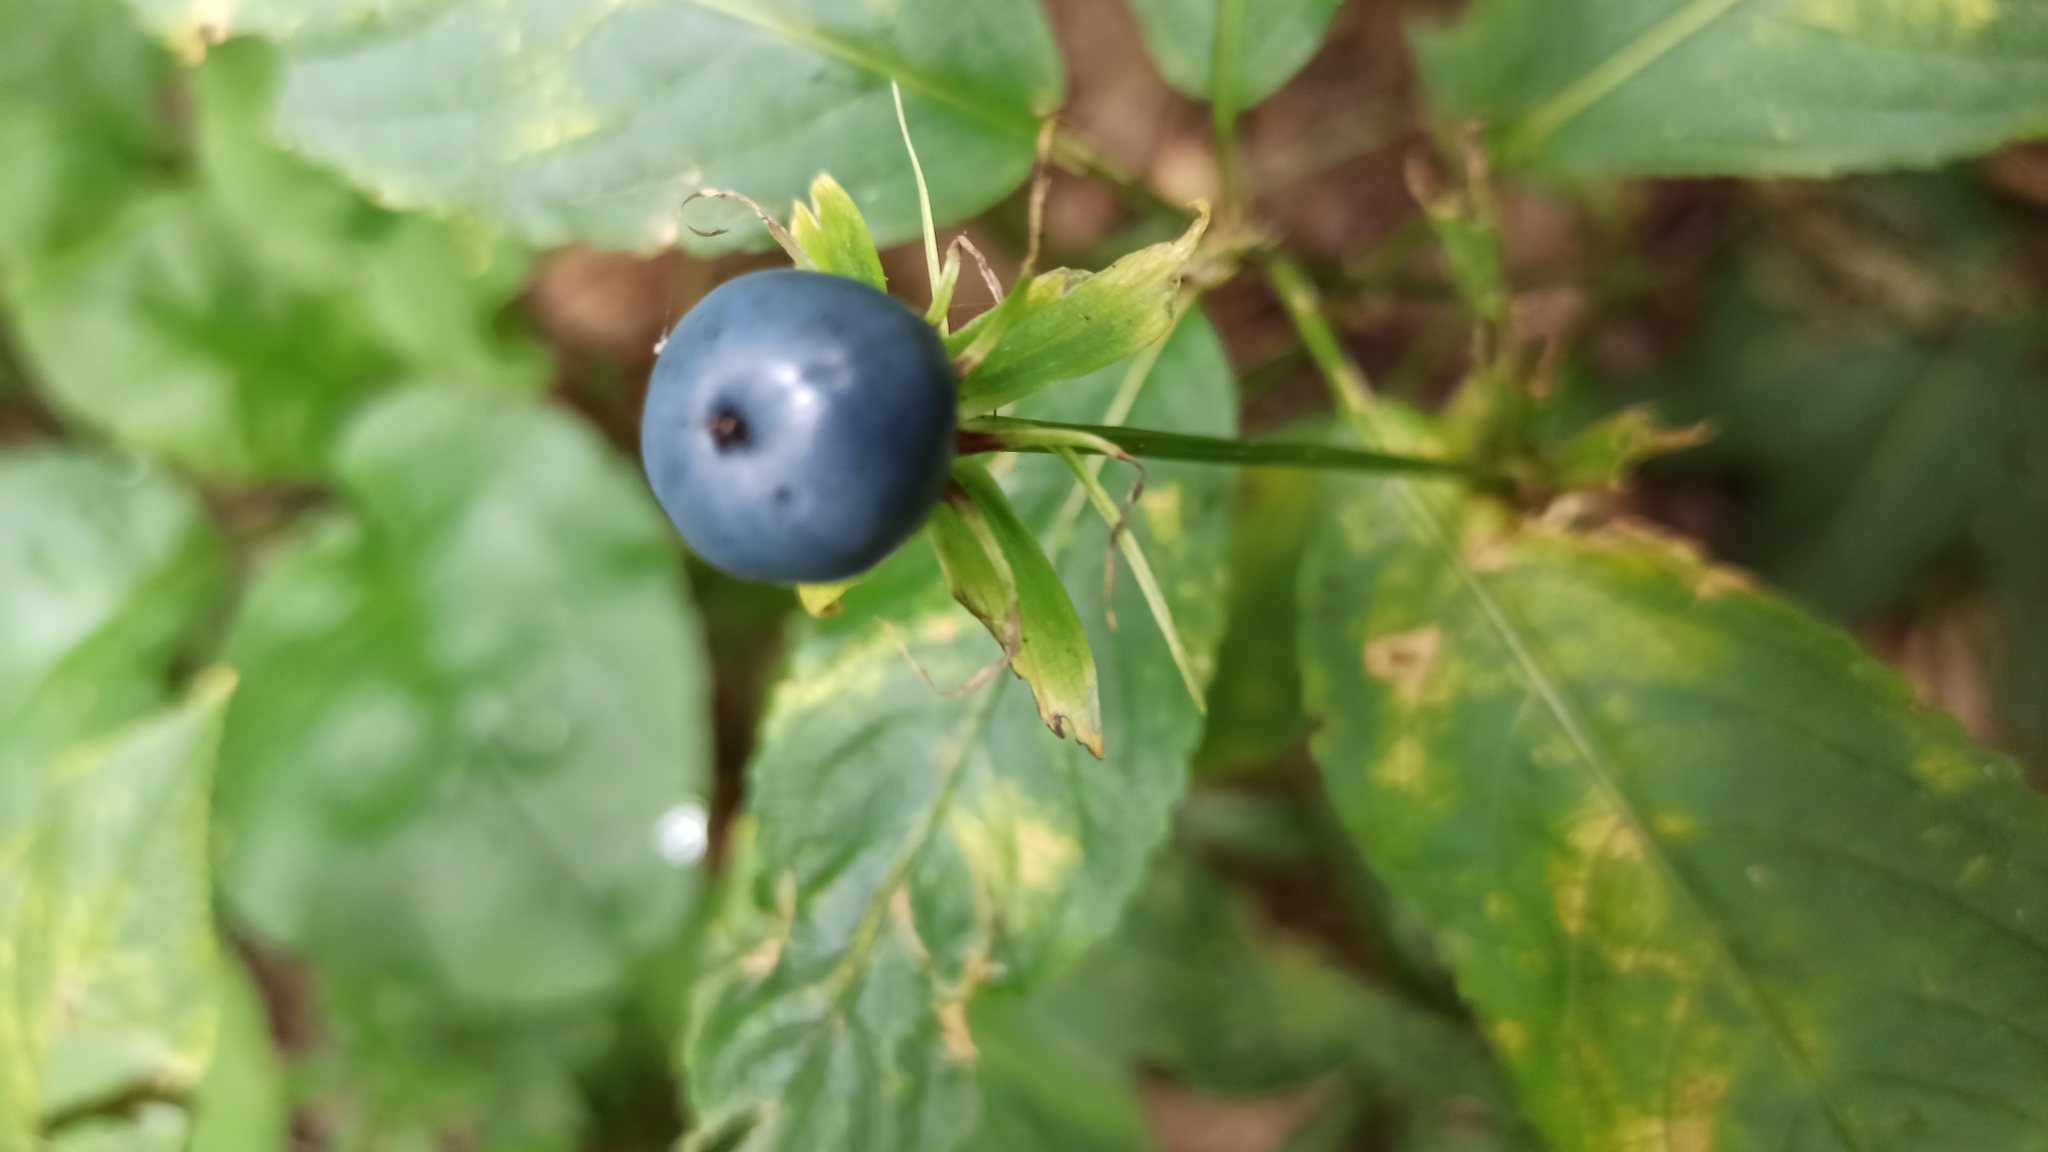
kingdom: Plantae
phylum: Tracheophyta
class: Liliopsida
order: Liliales
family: Melanthiaceae
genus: Paris
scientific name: Paris quadrifolia
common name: Herb-paris
